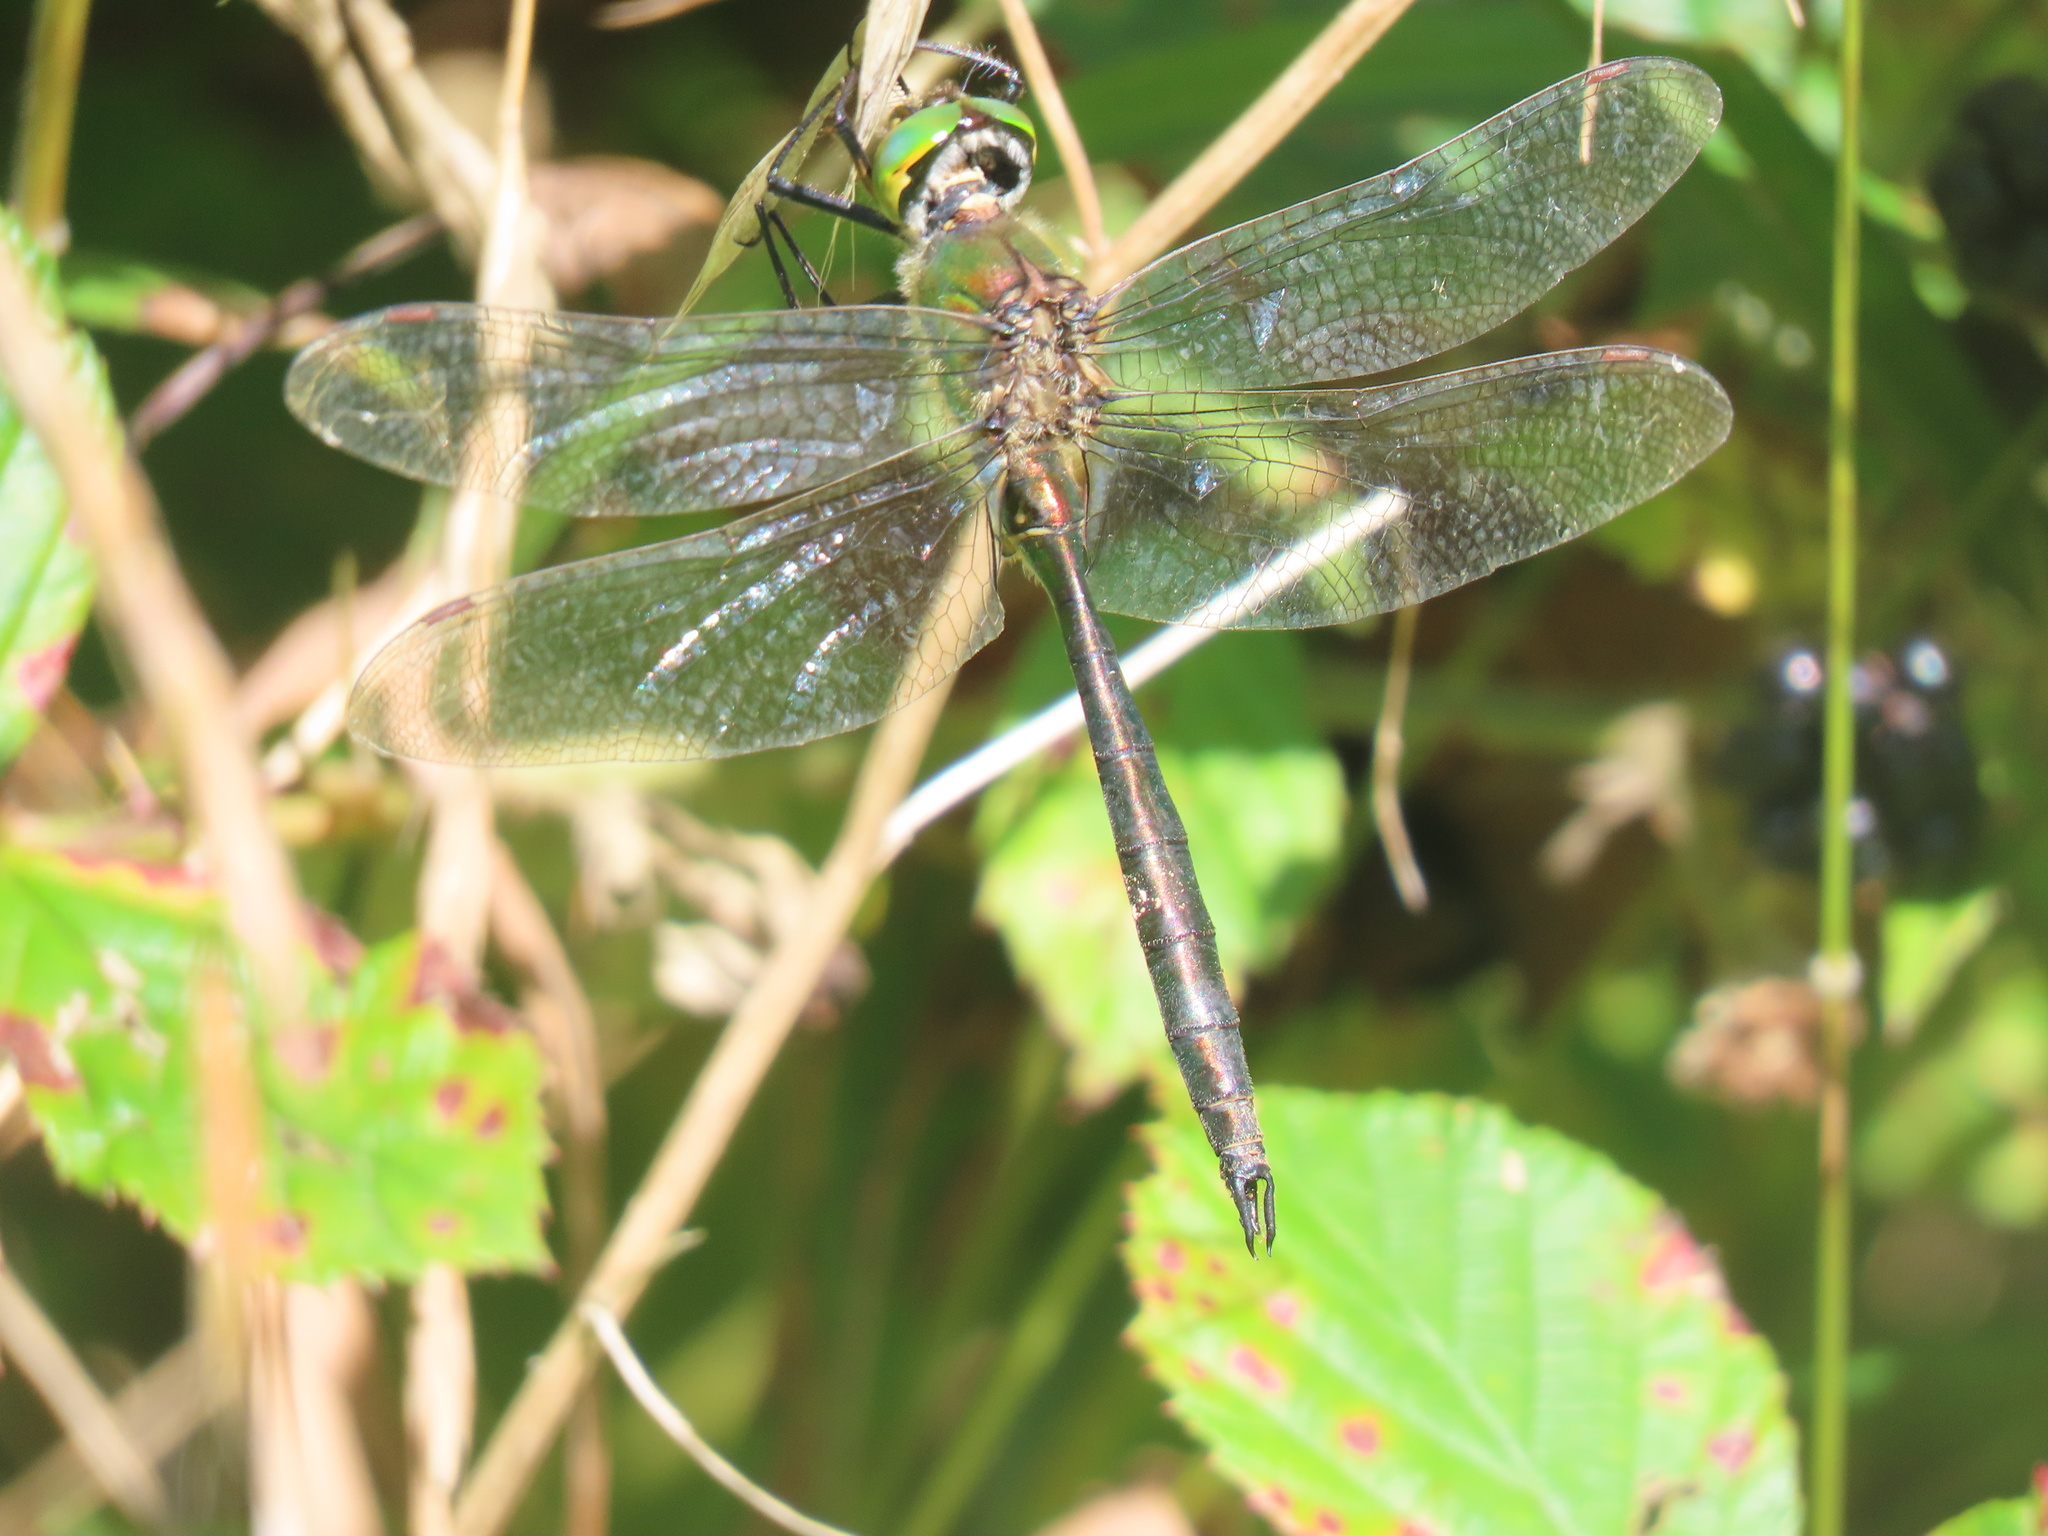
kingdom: Animalia
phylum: Arthropoda
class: Insecta
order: Odonata
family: Corduliidae
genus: Somatochlora
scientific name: Somatochlora metallica
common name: Brilliant emerald
